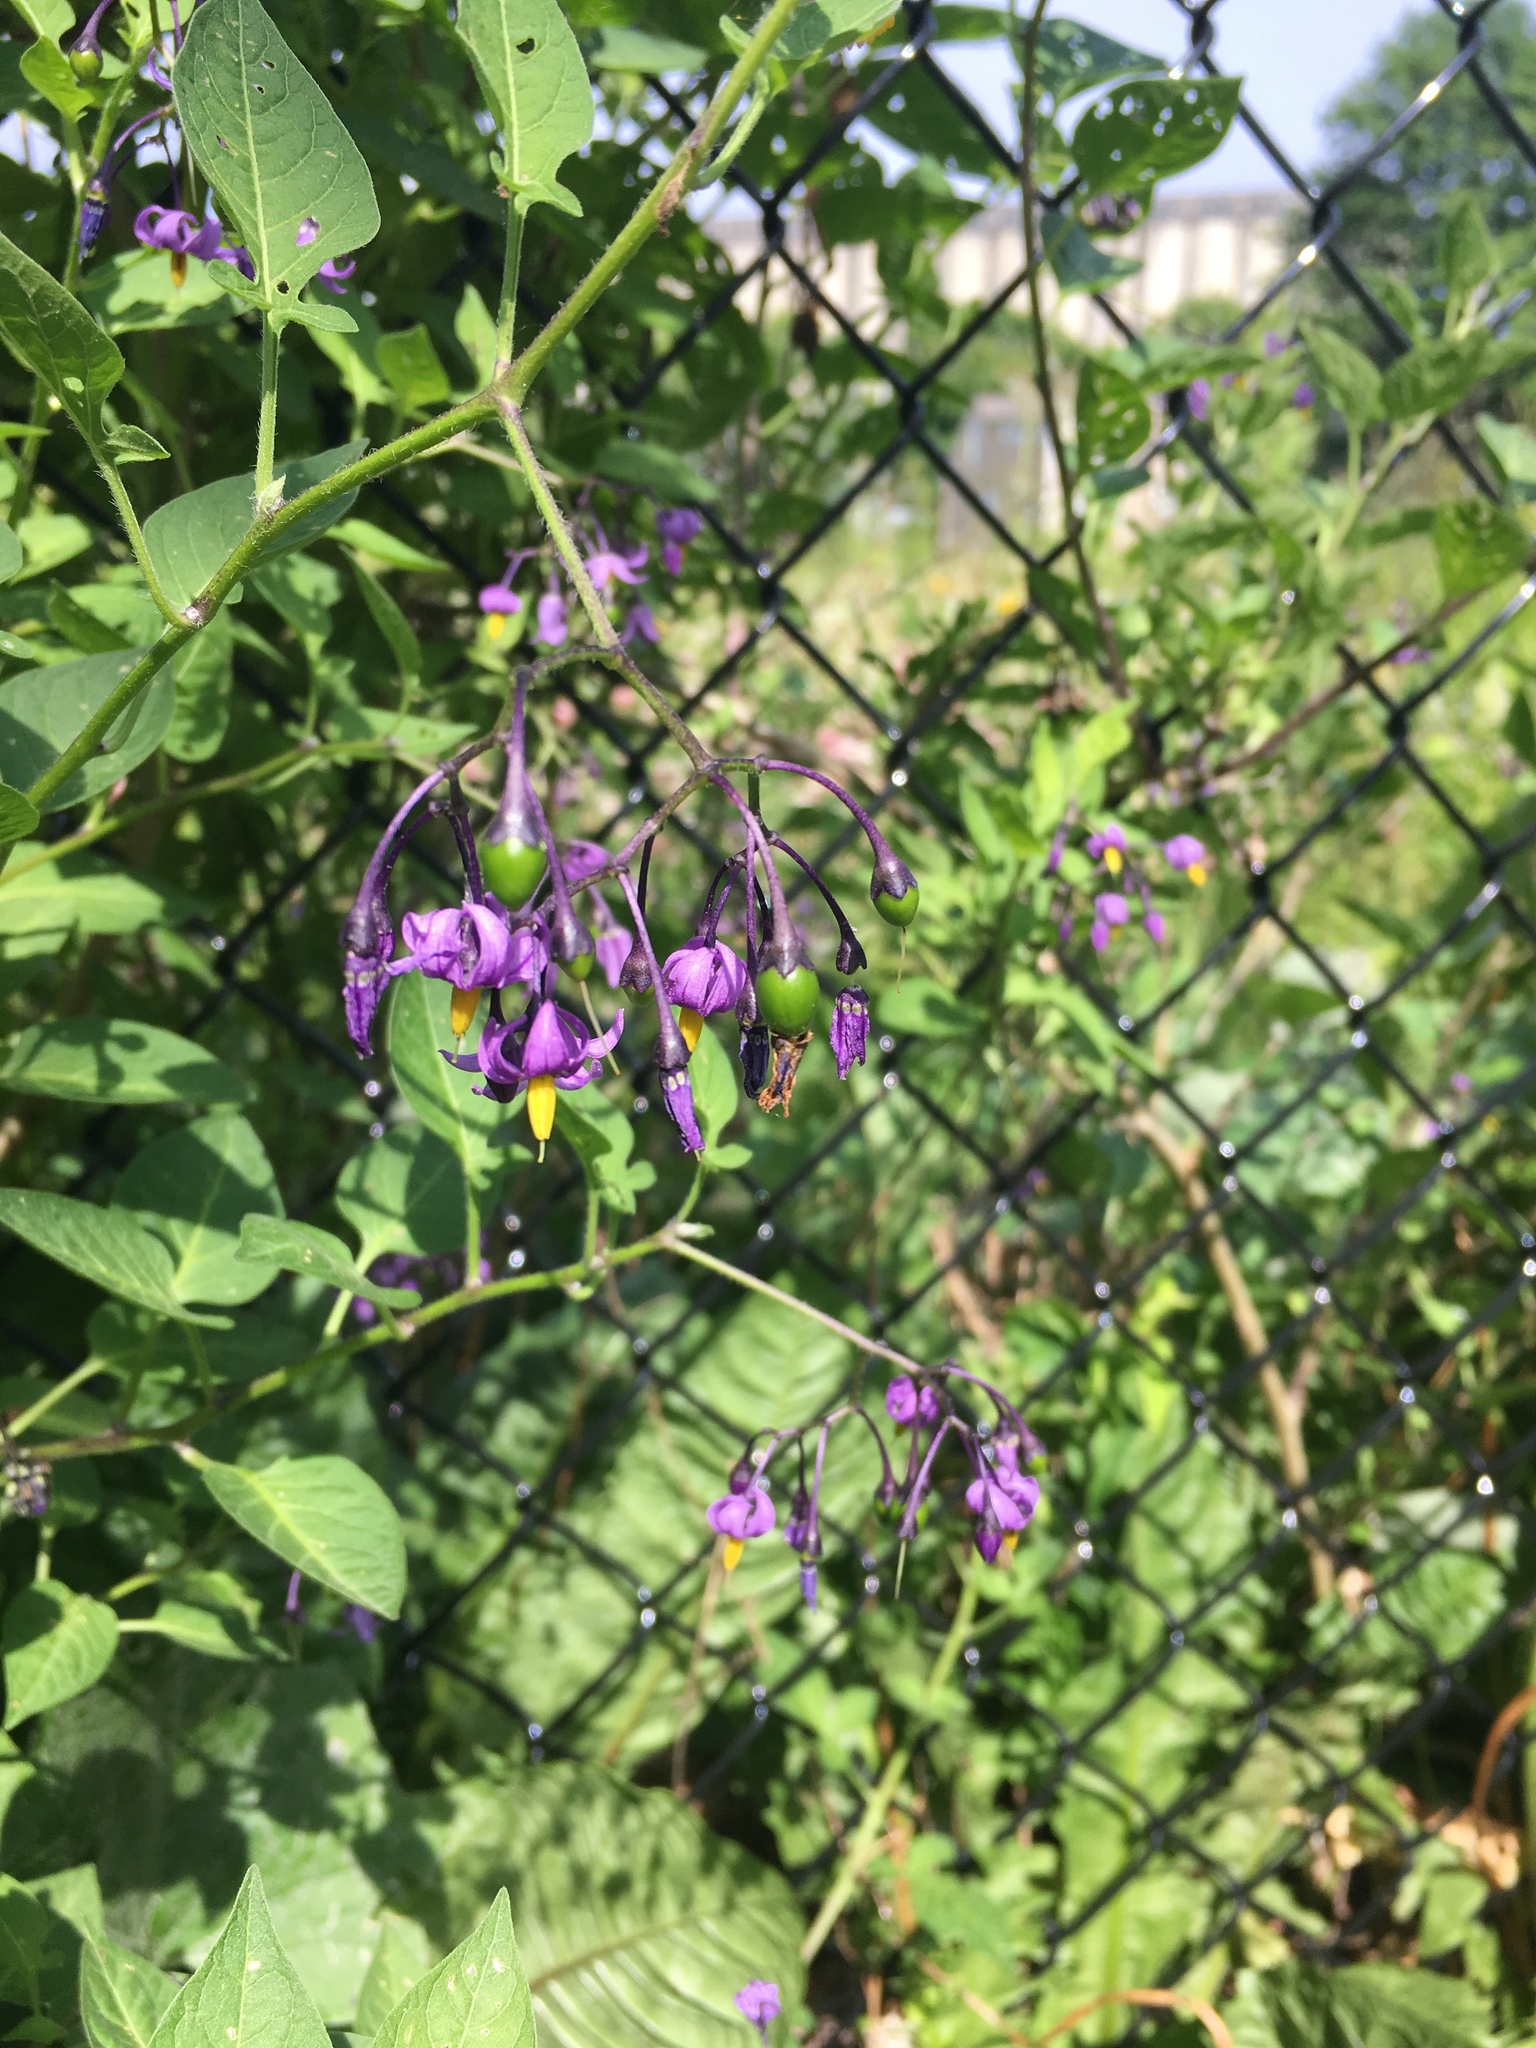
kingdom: Plantae
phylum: Tracheophyta
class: Magnoliopsida
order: Solanales
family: Solanaceae
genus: Solanum
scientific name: Solanum dulcamara
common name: Climbing nightshade
